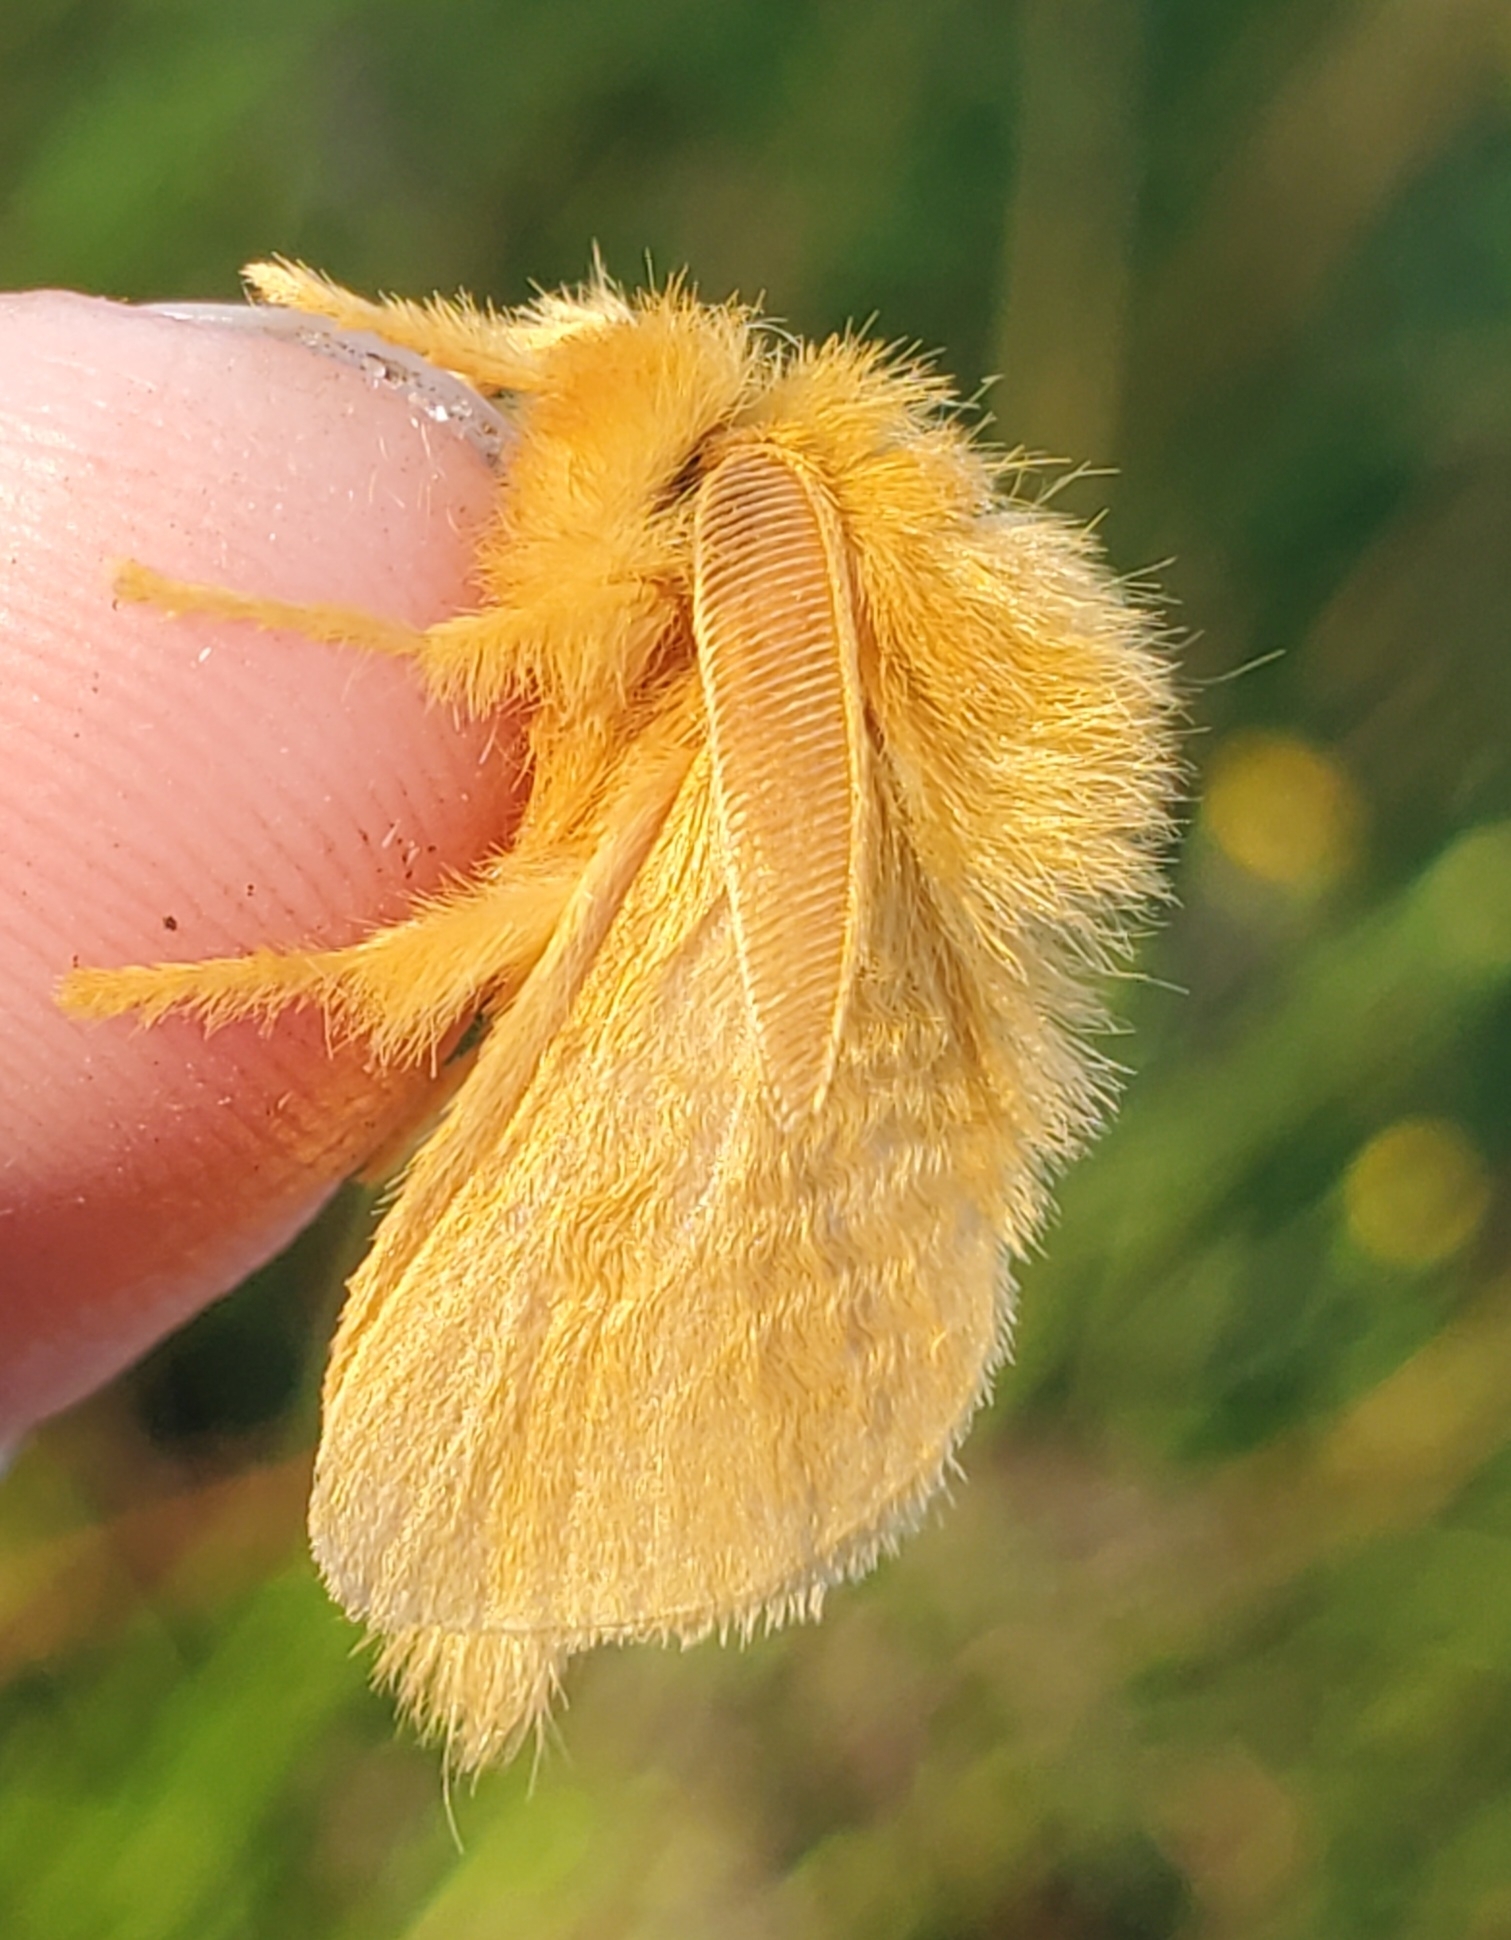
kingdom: Animalia
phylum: Arthropoda
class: Insecta
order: Lepidoptera
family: Megalopygidae
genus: Megalopyge
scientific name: Megalopyge pixidifera
